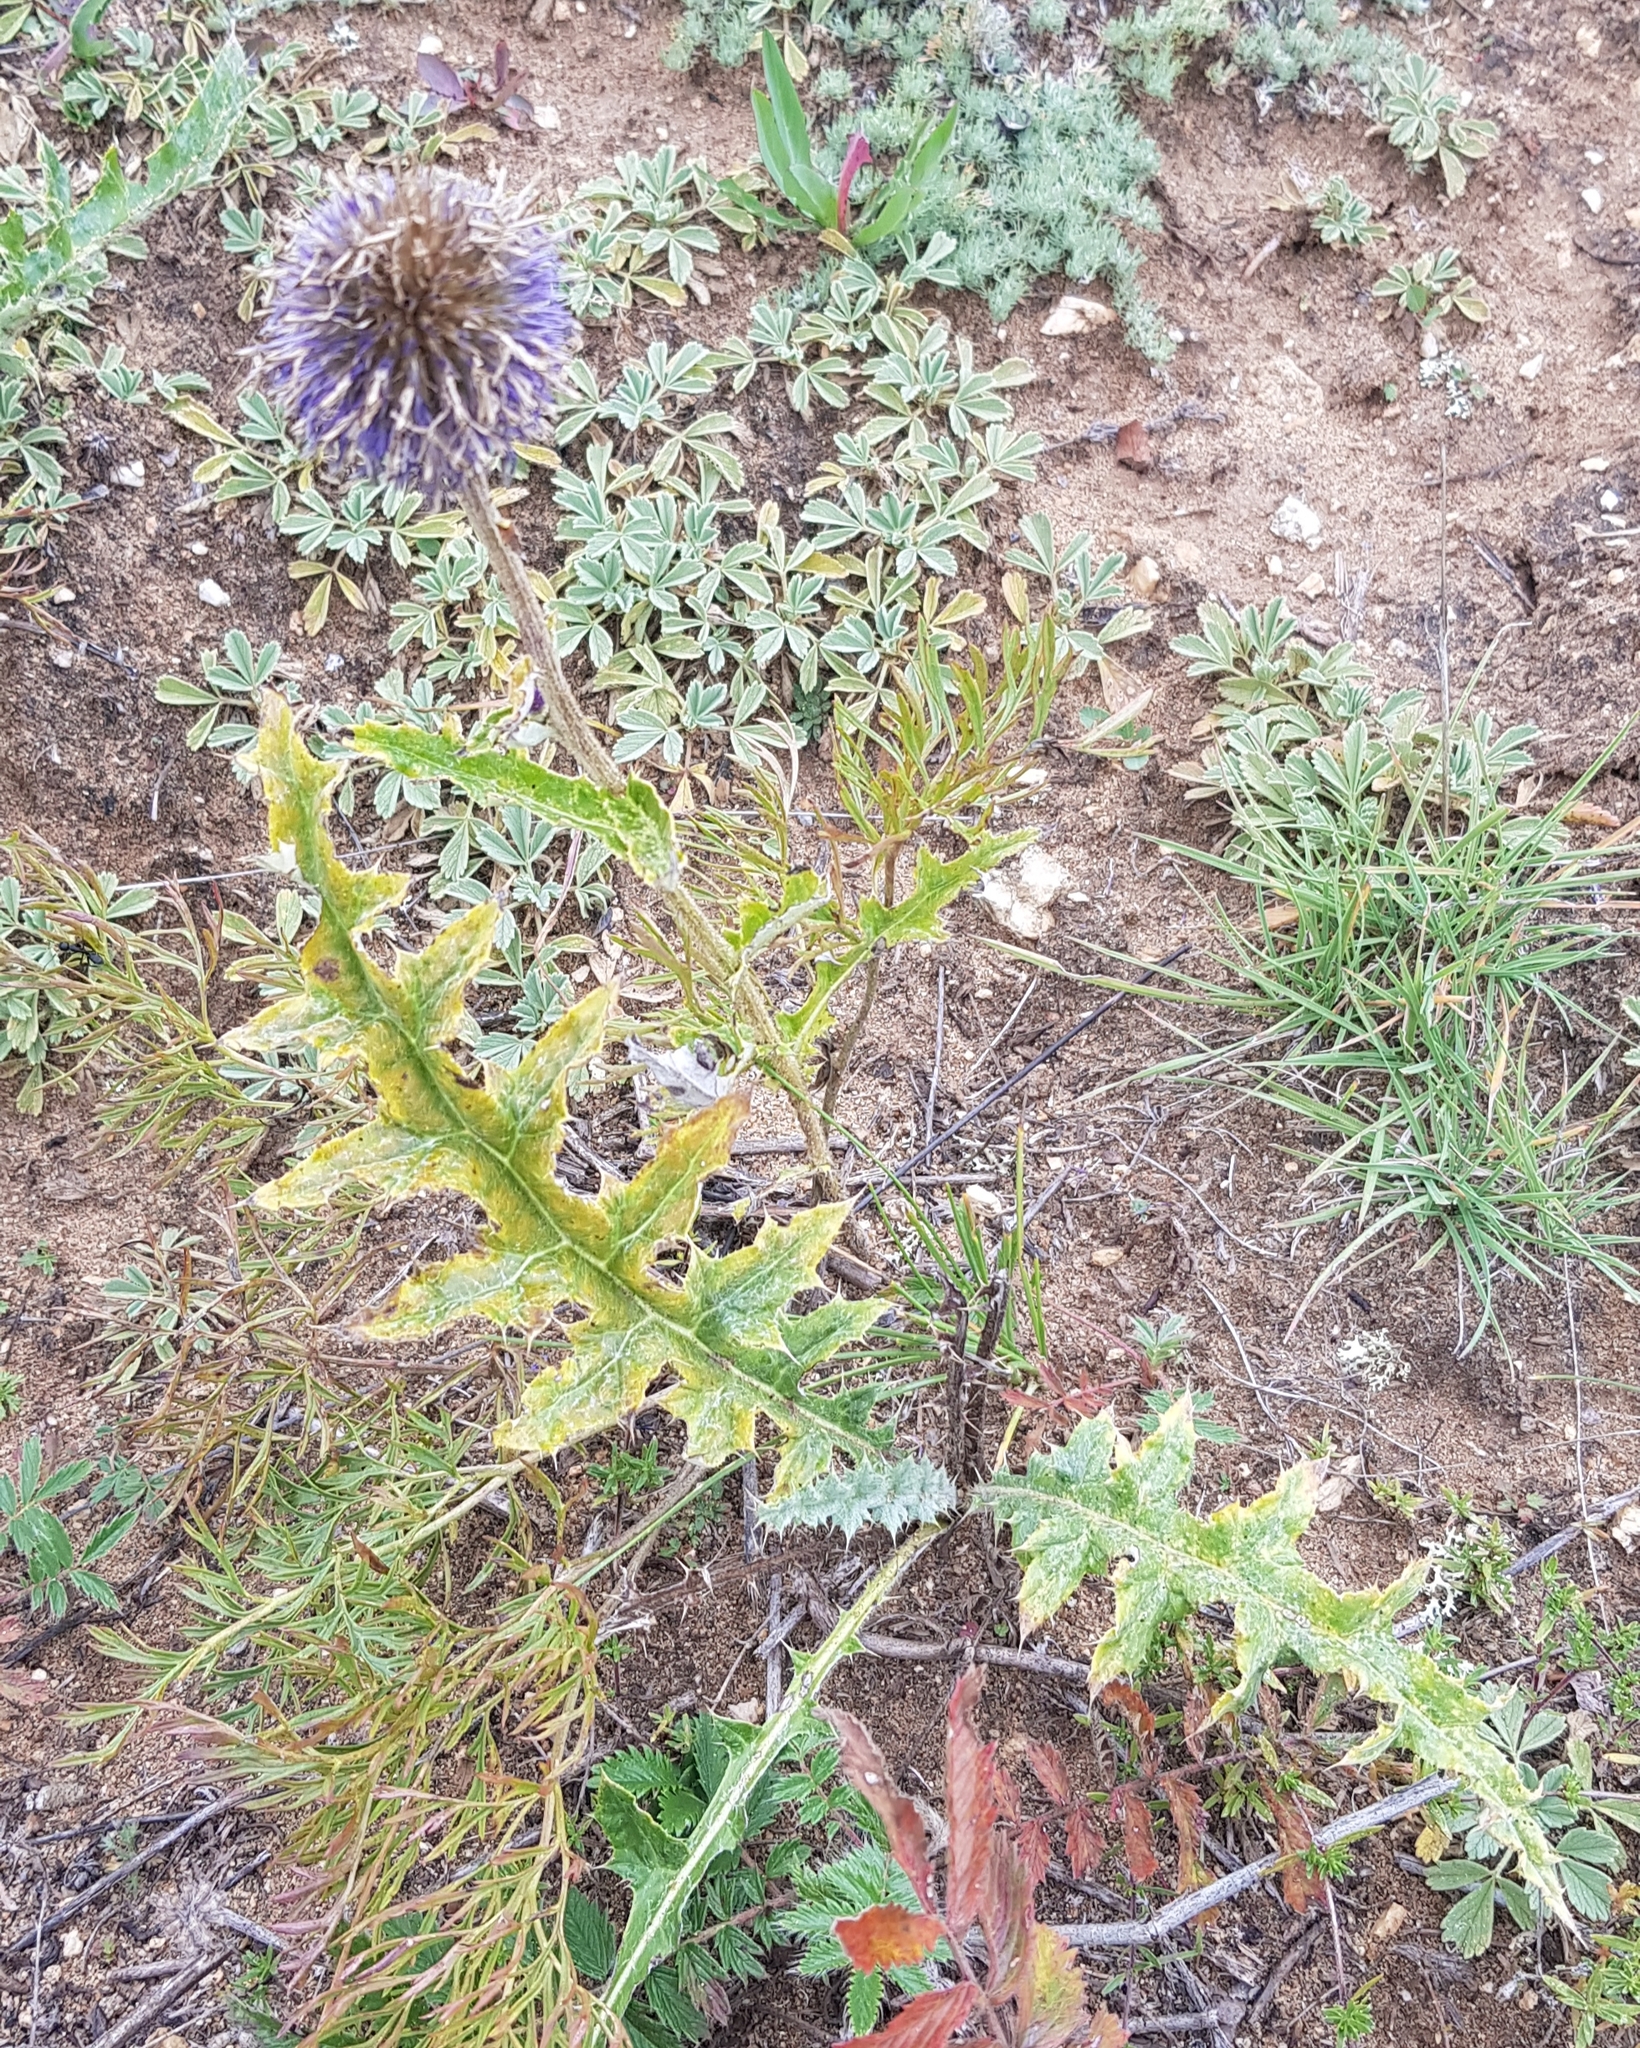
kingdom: Plantae
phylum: Tracheophyta
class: Magnoliopsida
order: Asterales
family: Asteraceae
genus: Echinops
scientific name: Echinops davuricus
